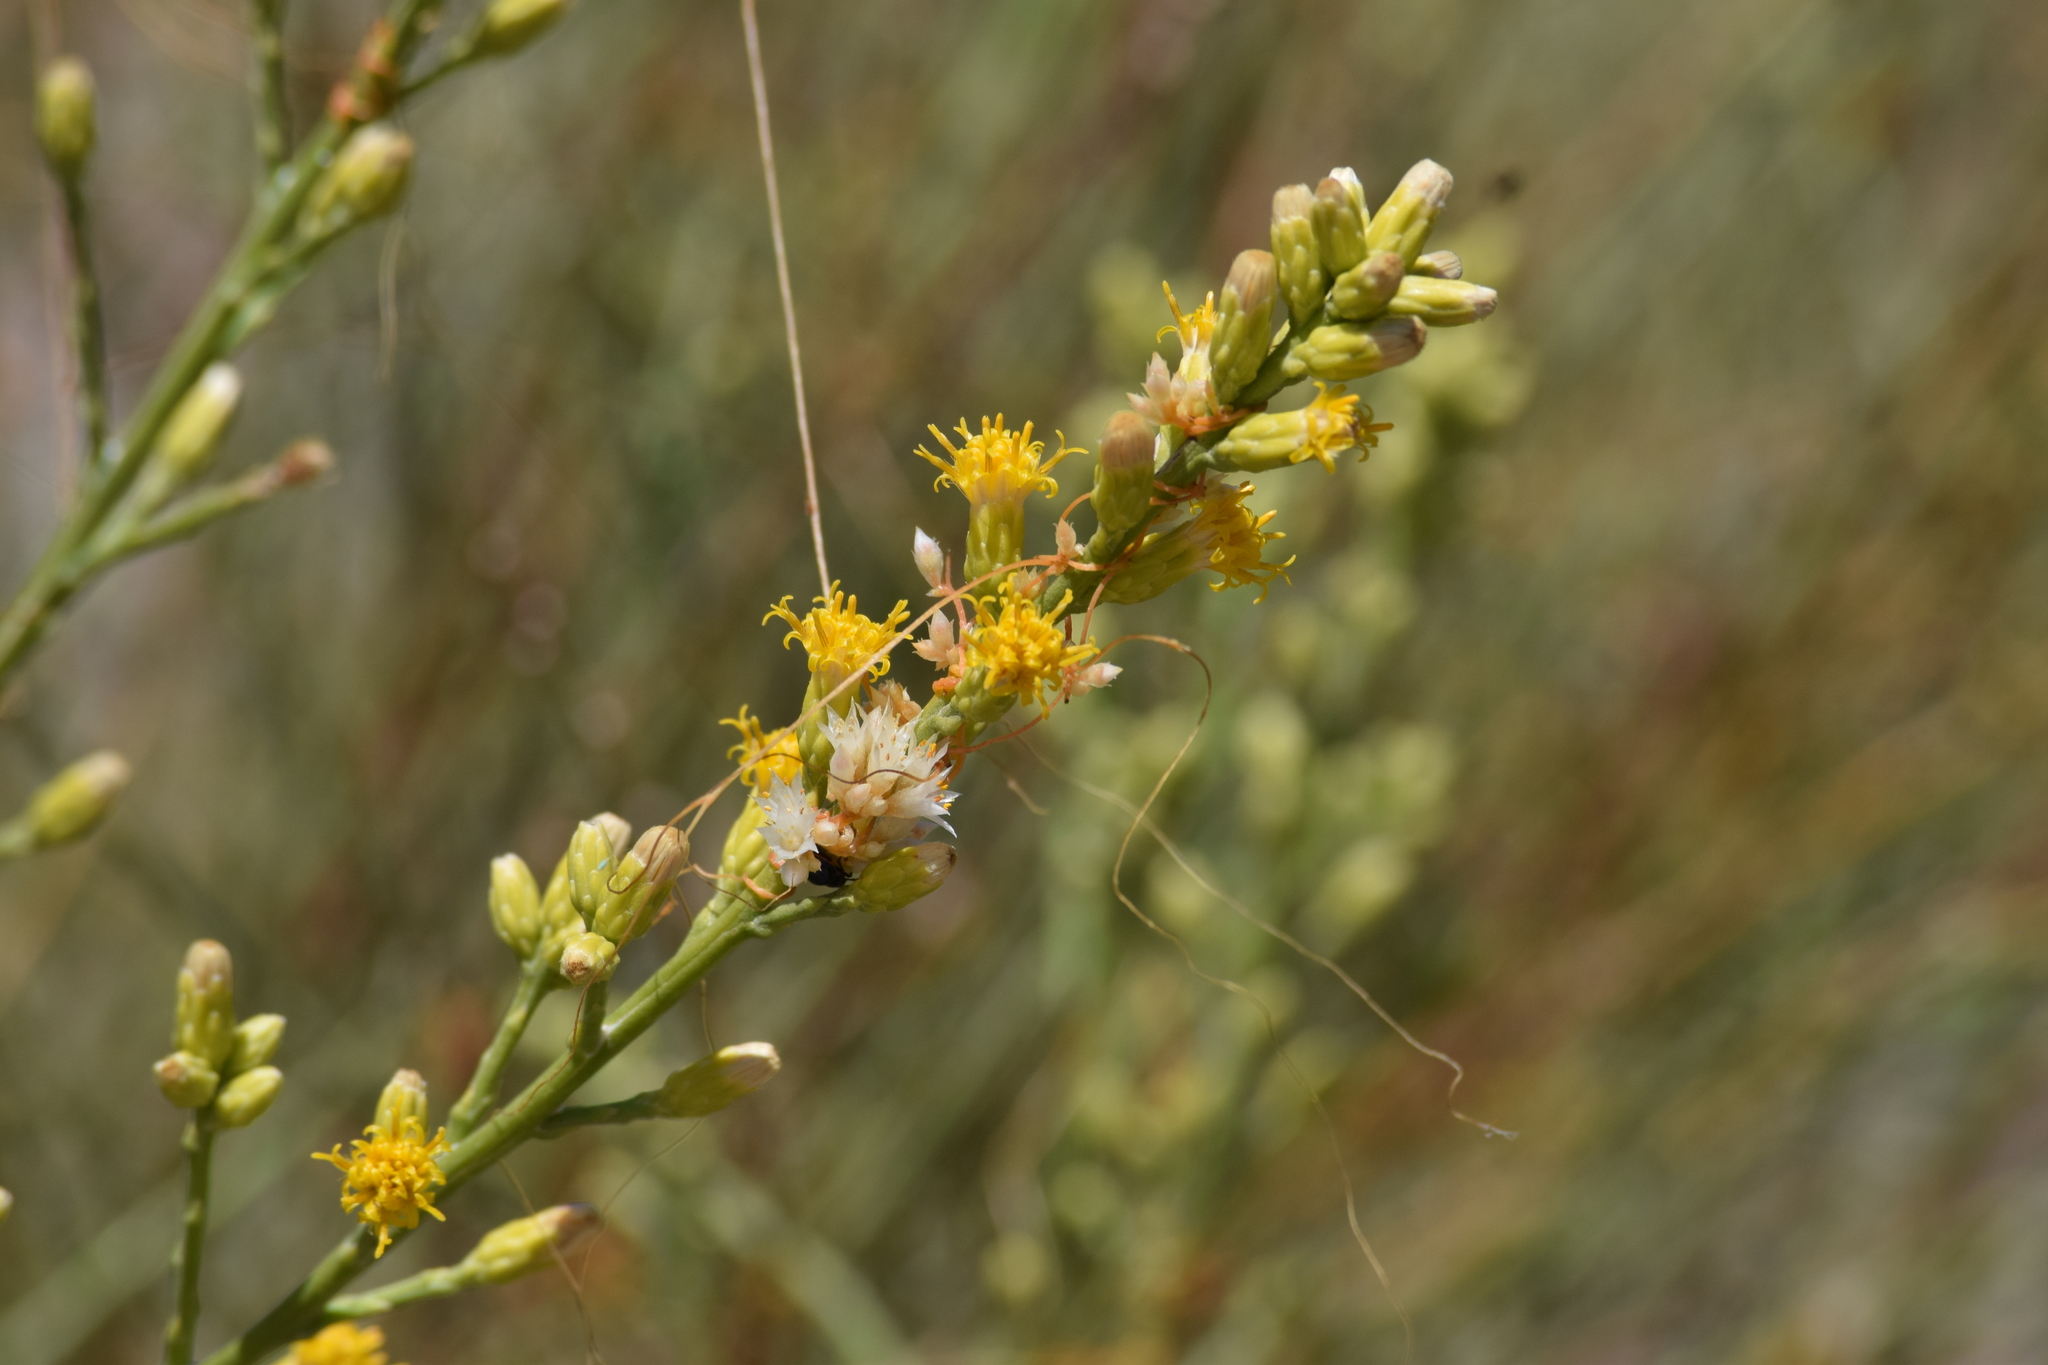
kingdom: Plantae
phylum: Tracheophyta
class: Magnoliopsida
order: Asterales
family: Asteraceae
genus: Lepidospartum
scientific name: Lepidospartum squamatum
